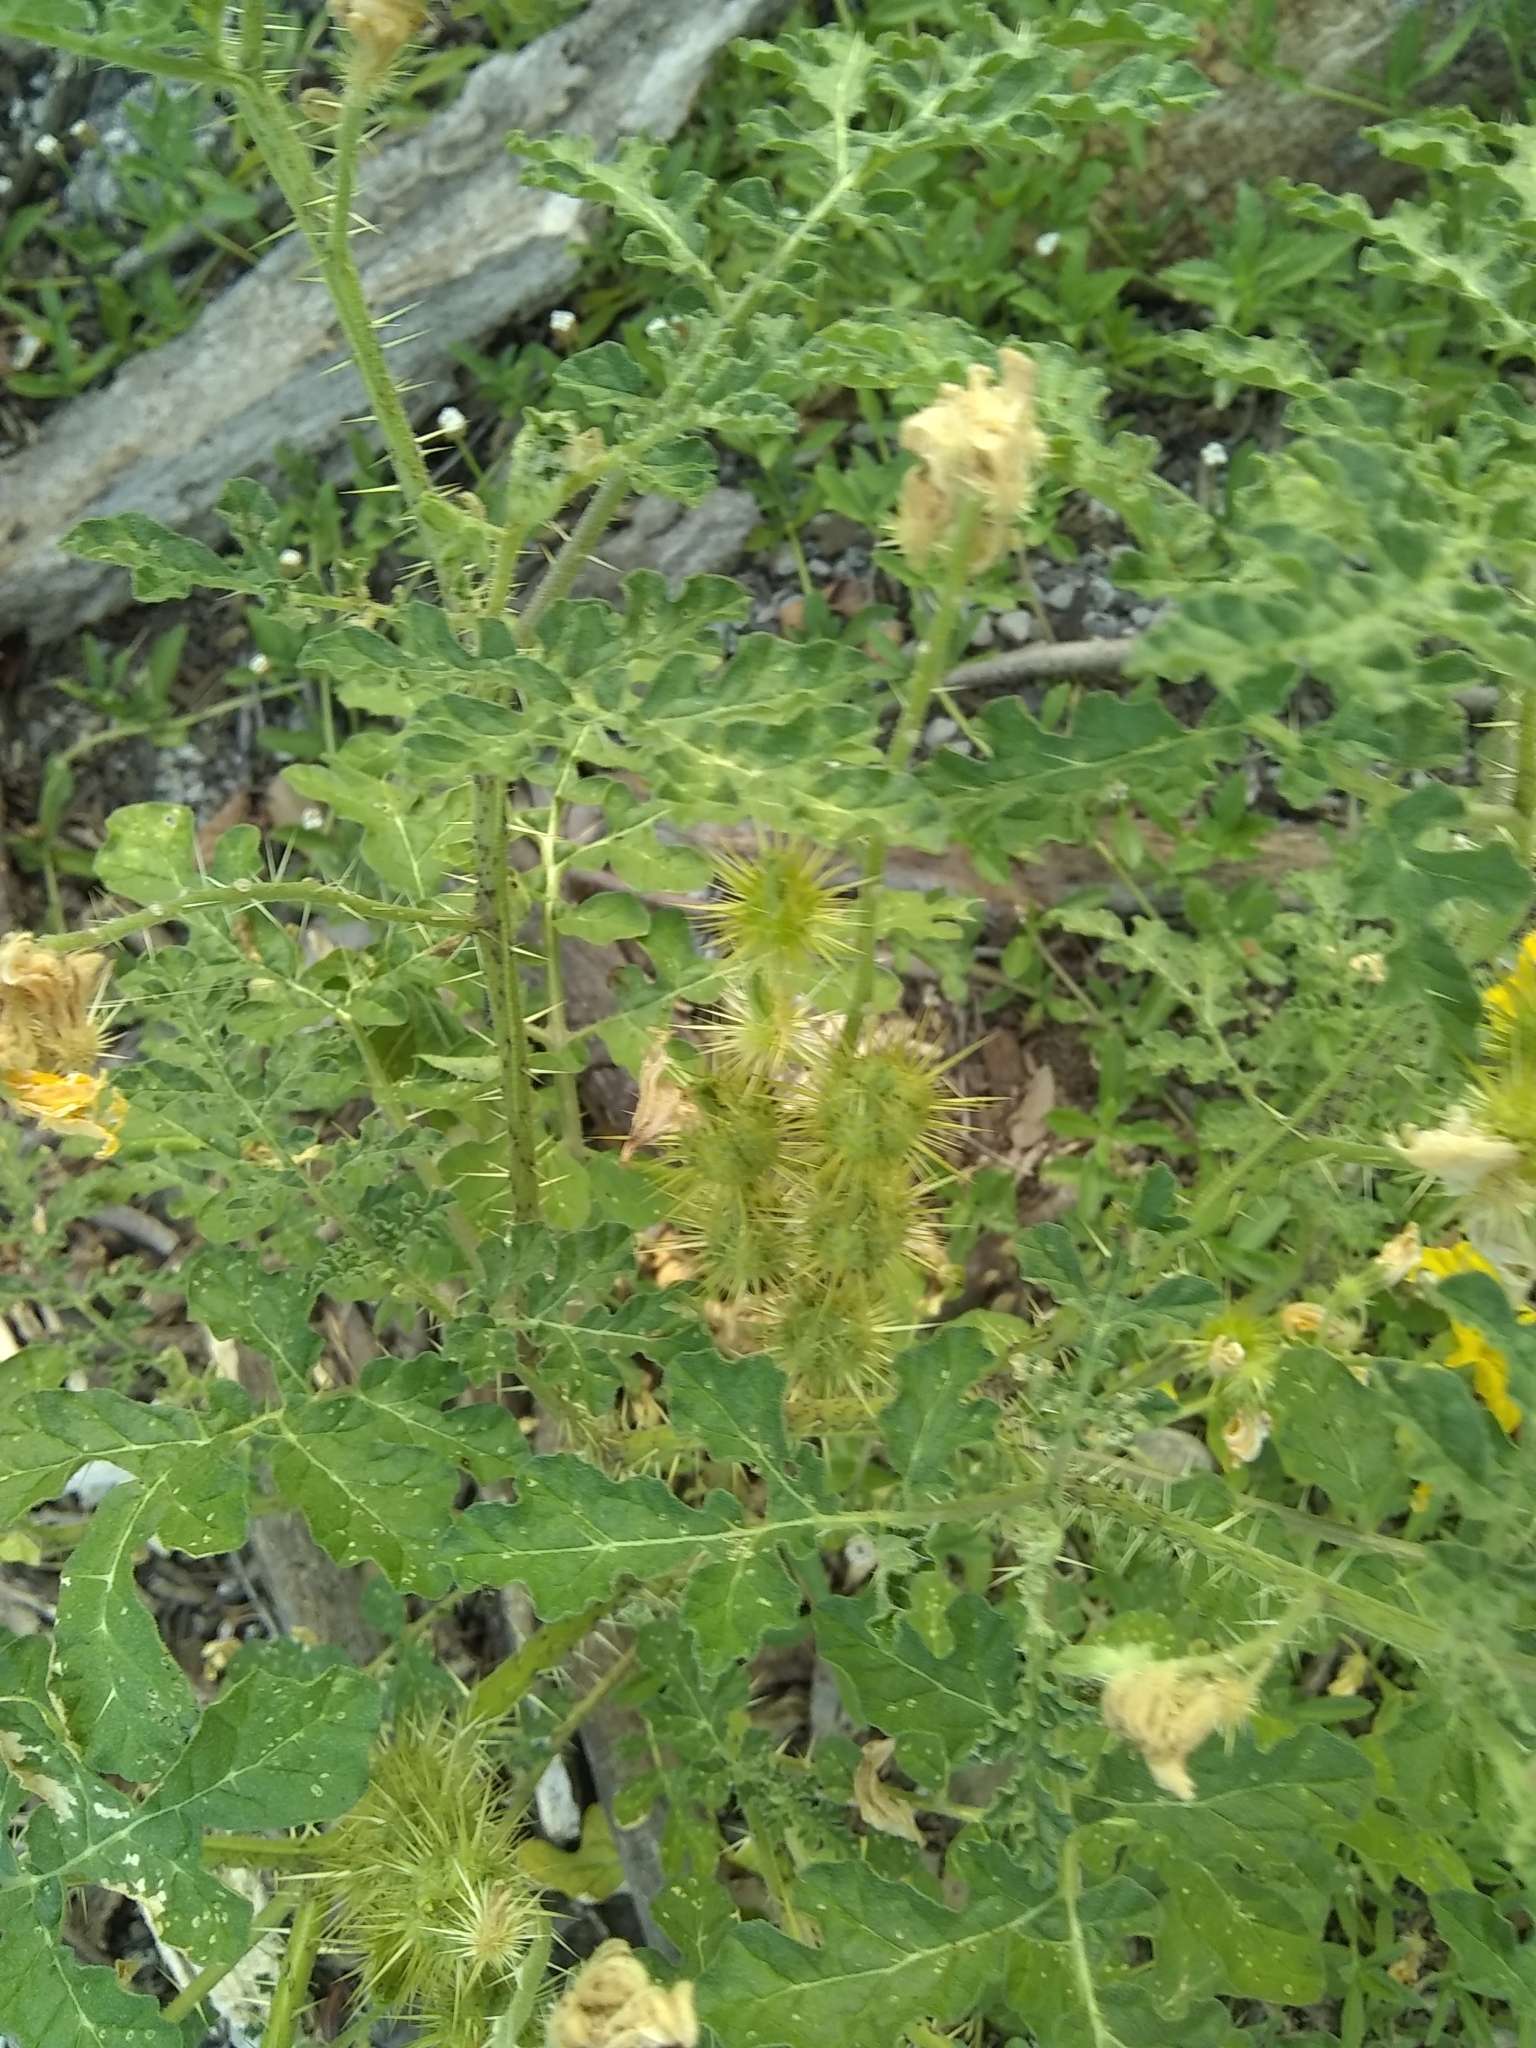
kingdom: Plantae
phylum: Tracheophyta
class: Magnoliopsida
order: Solanales
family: Solanaceae
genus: Solanum
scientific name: Solanum angustifolium
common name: Buffalobur nightshade
